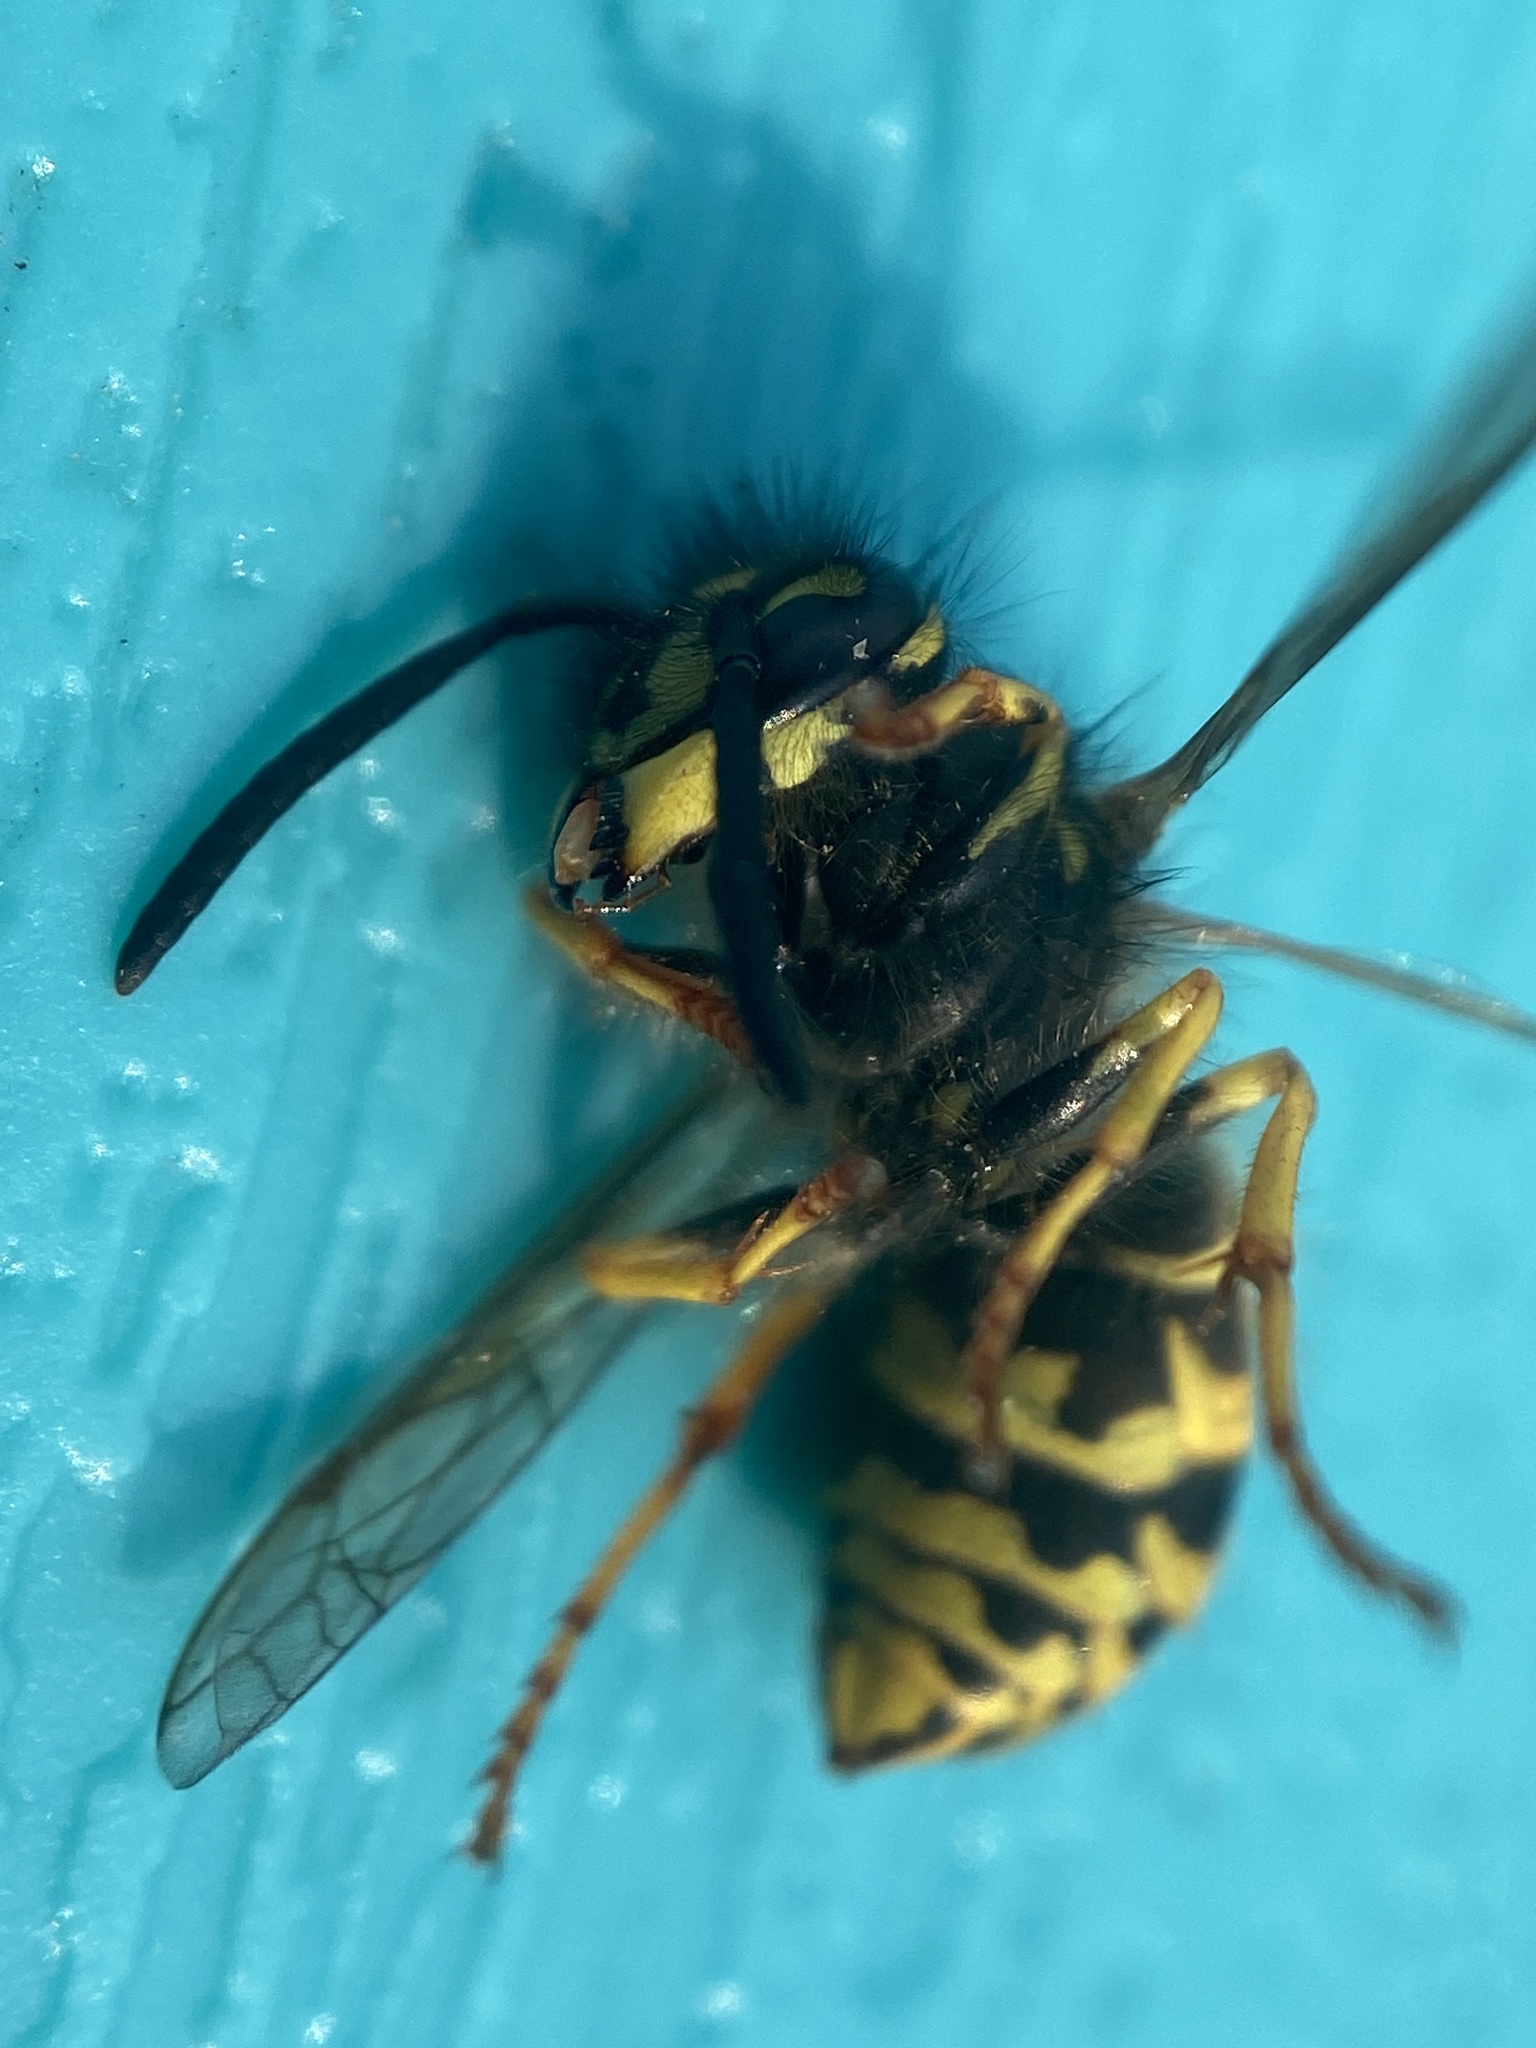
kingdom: Animalia
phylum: Arthropoda
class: Insecta
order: Hymenoptera
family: Vespidae
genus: Vespula
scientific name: Vespula alascensis
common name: Alaska yellowjacket
